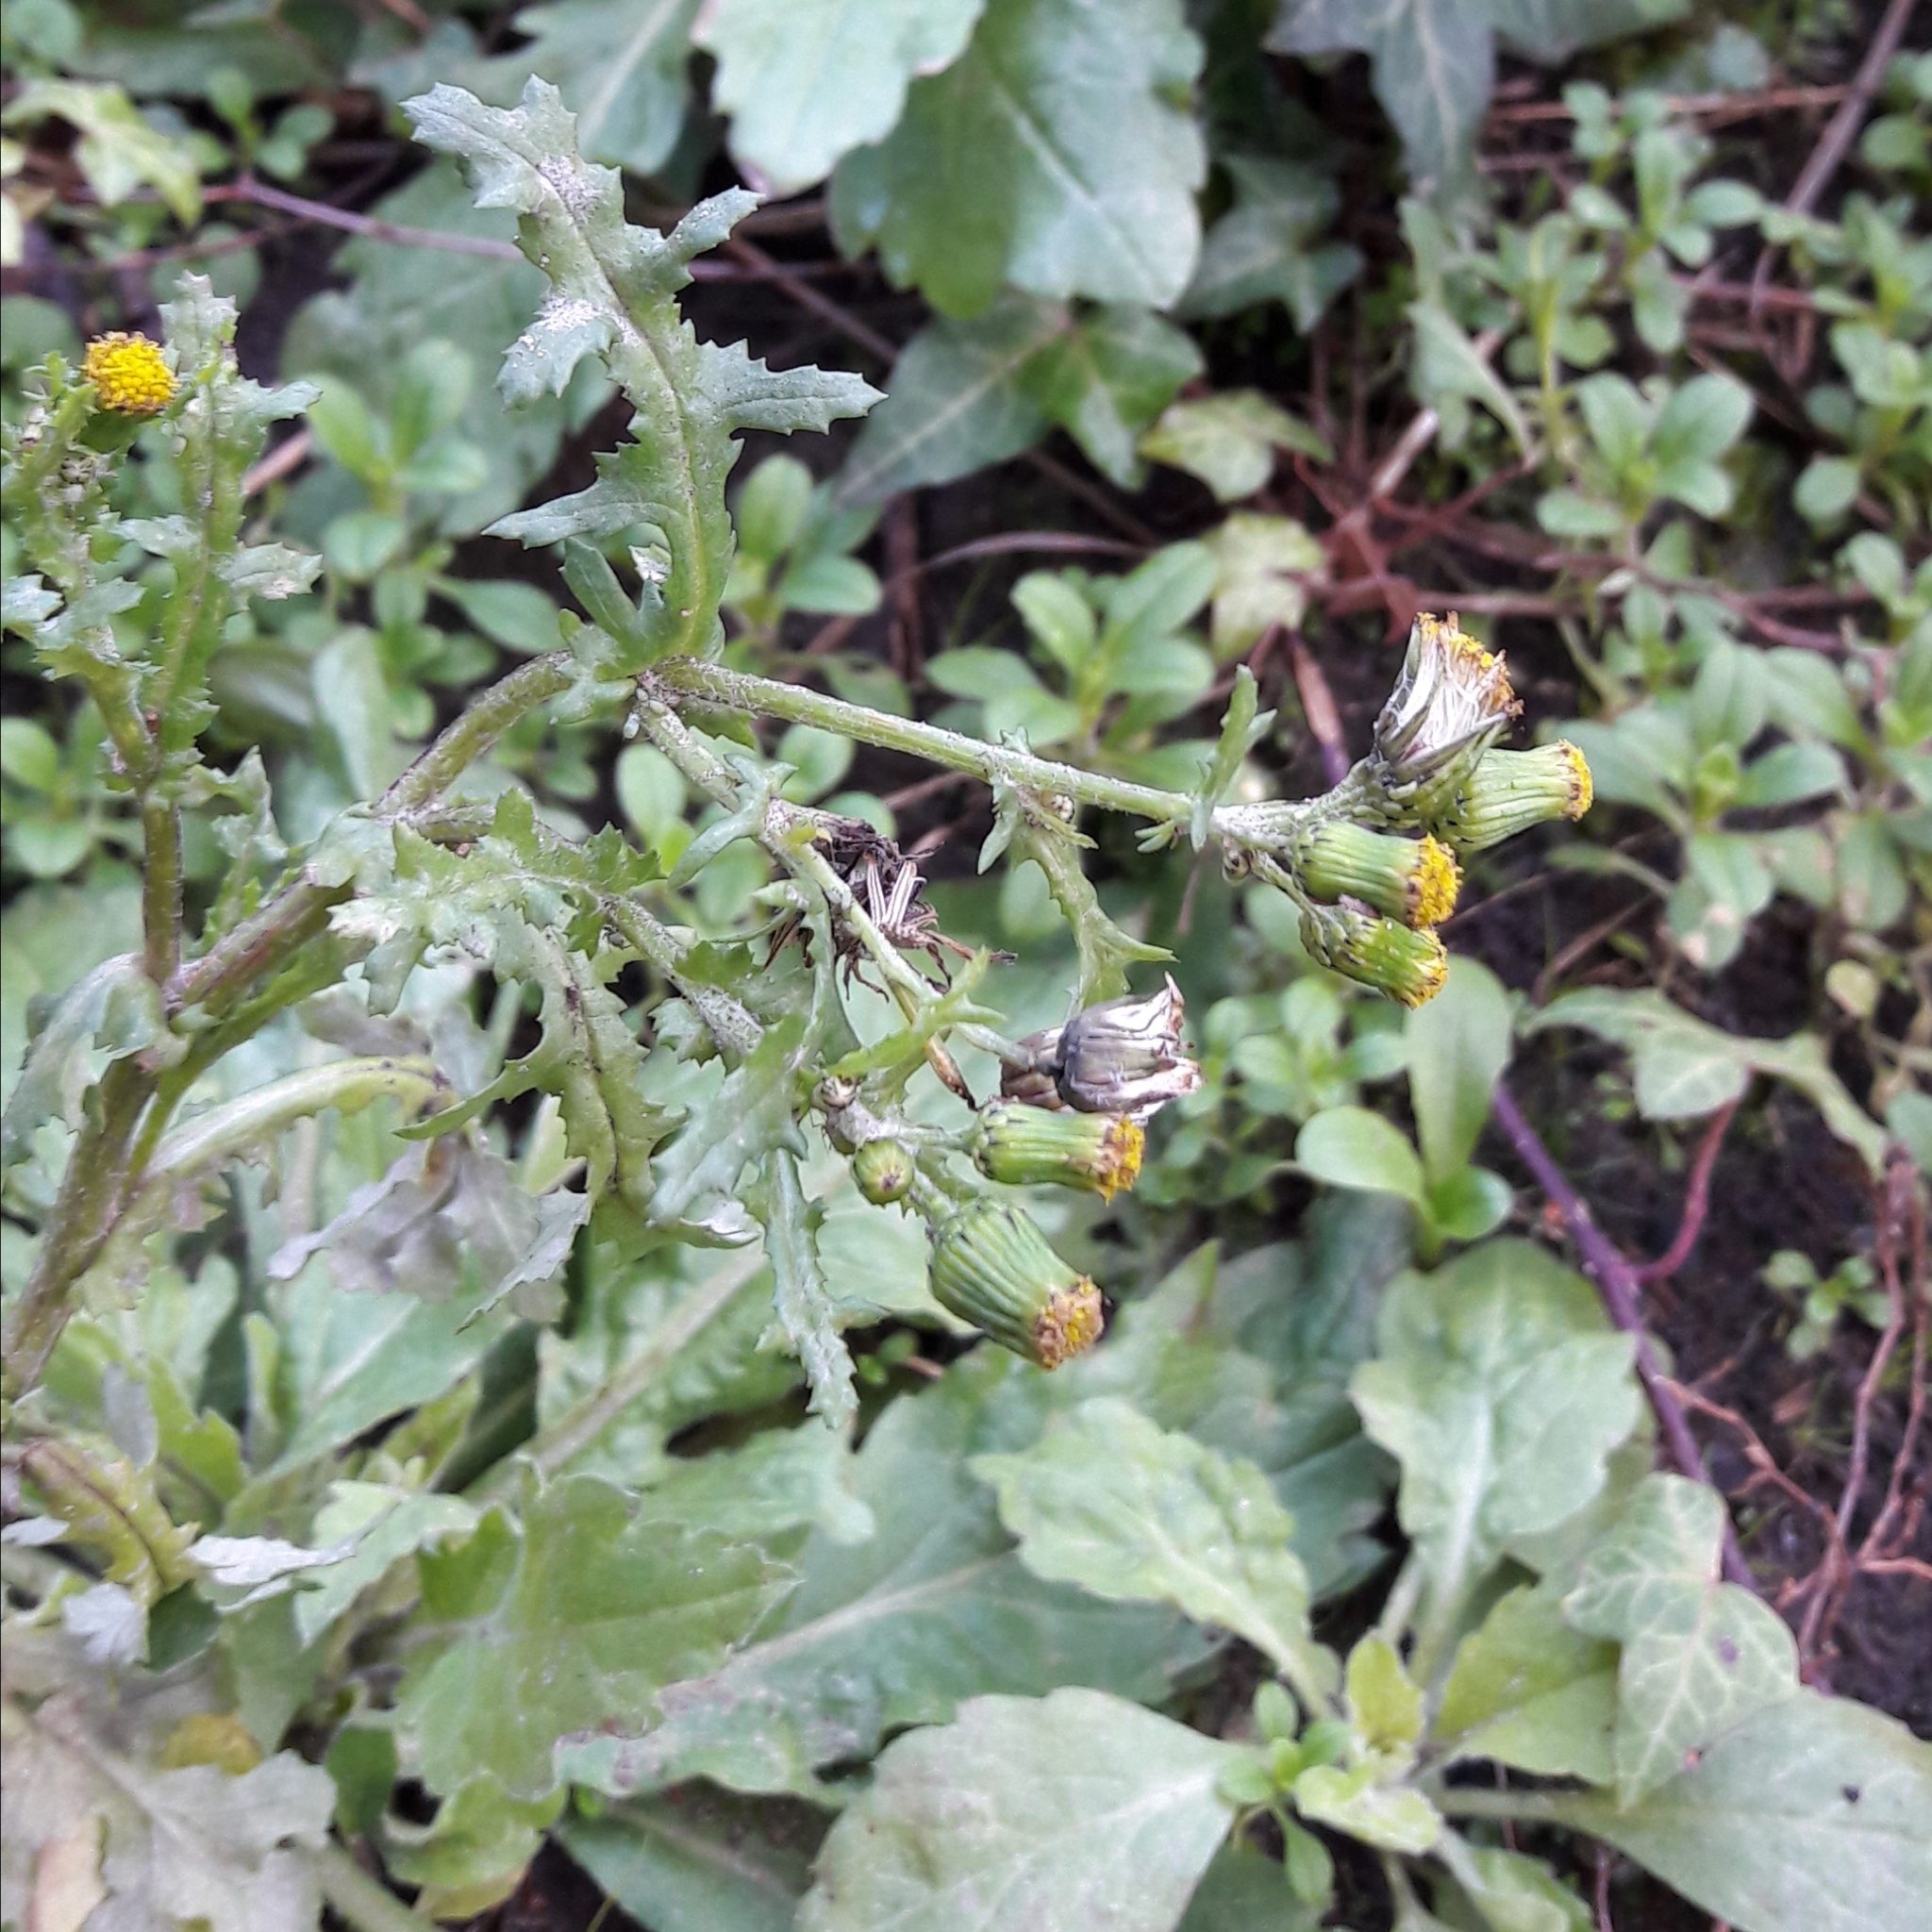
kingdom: Plantae
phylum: Tracheophyta
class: Magnoliopsida
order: Asterales
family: Asteraceae
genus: Senecio
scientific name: Senecio vulgaris
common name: Old-man-in-the-spring
